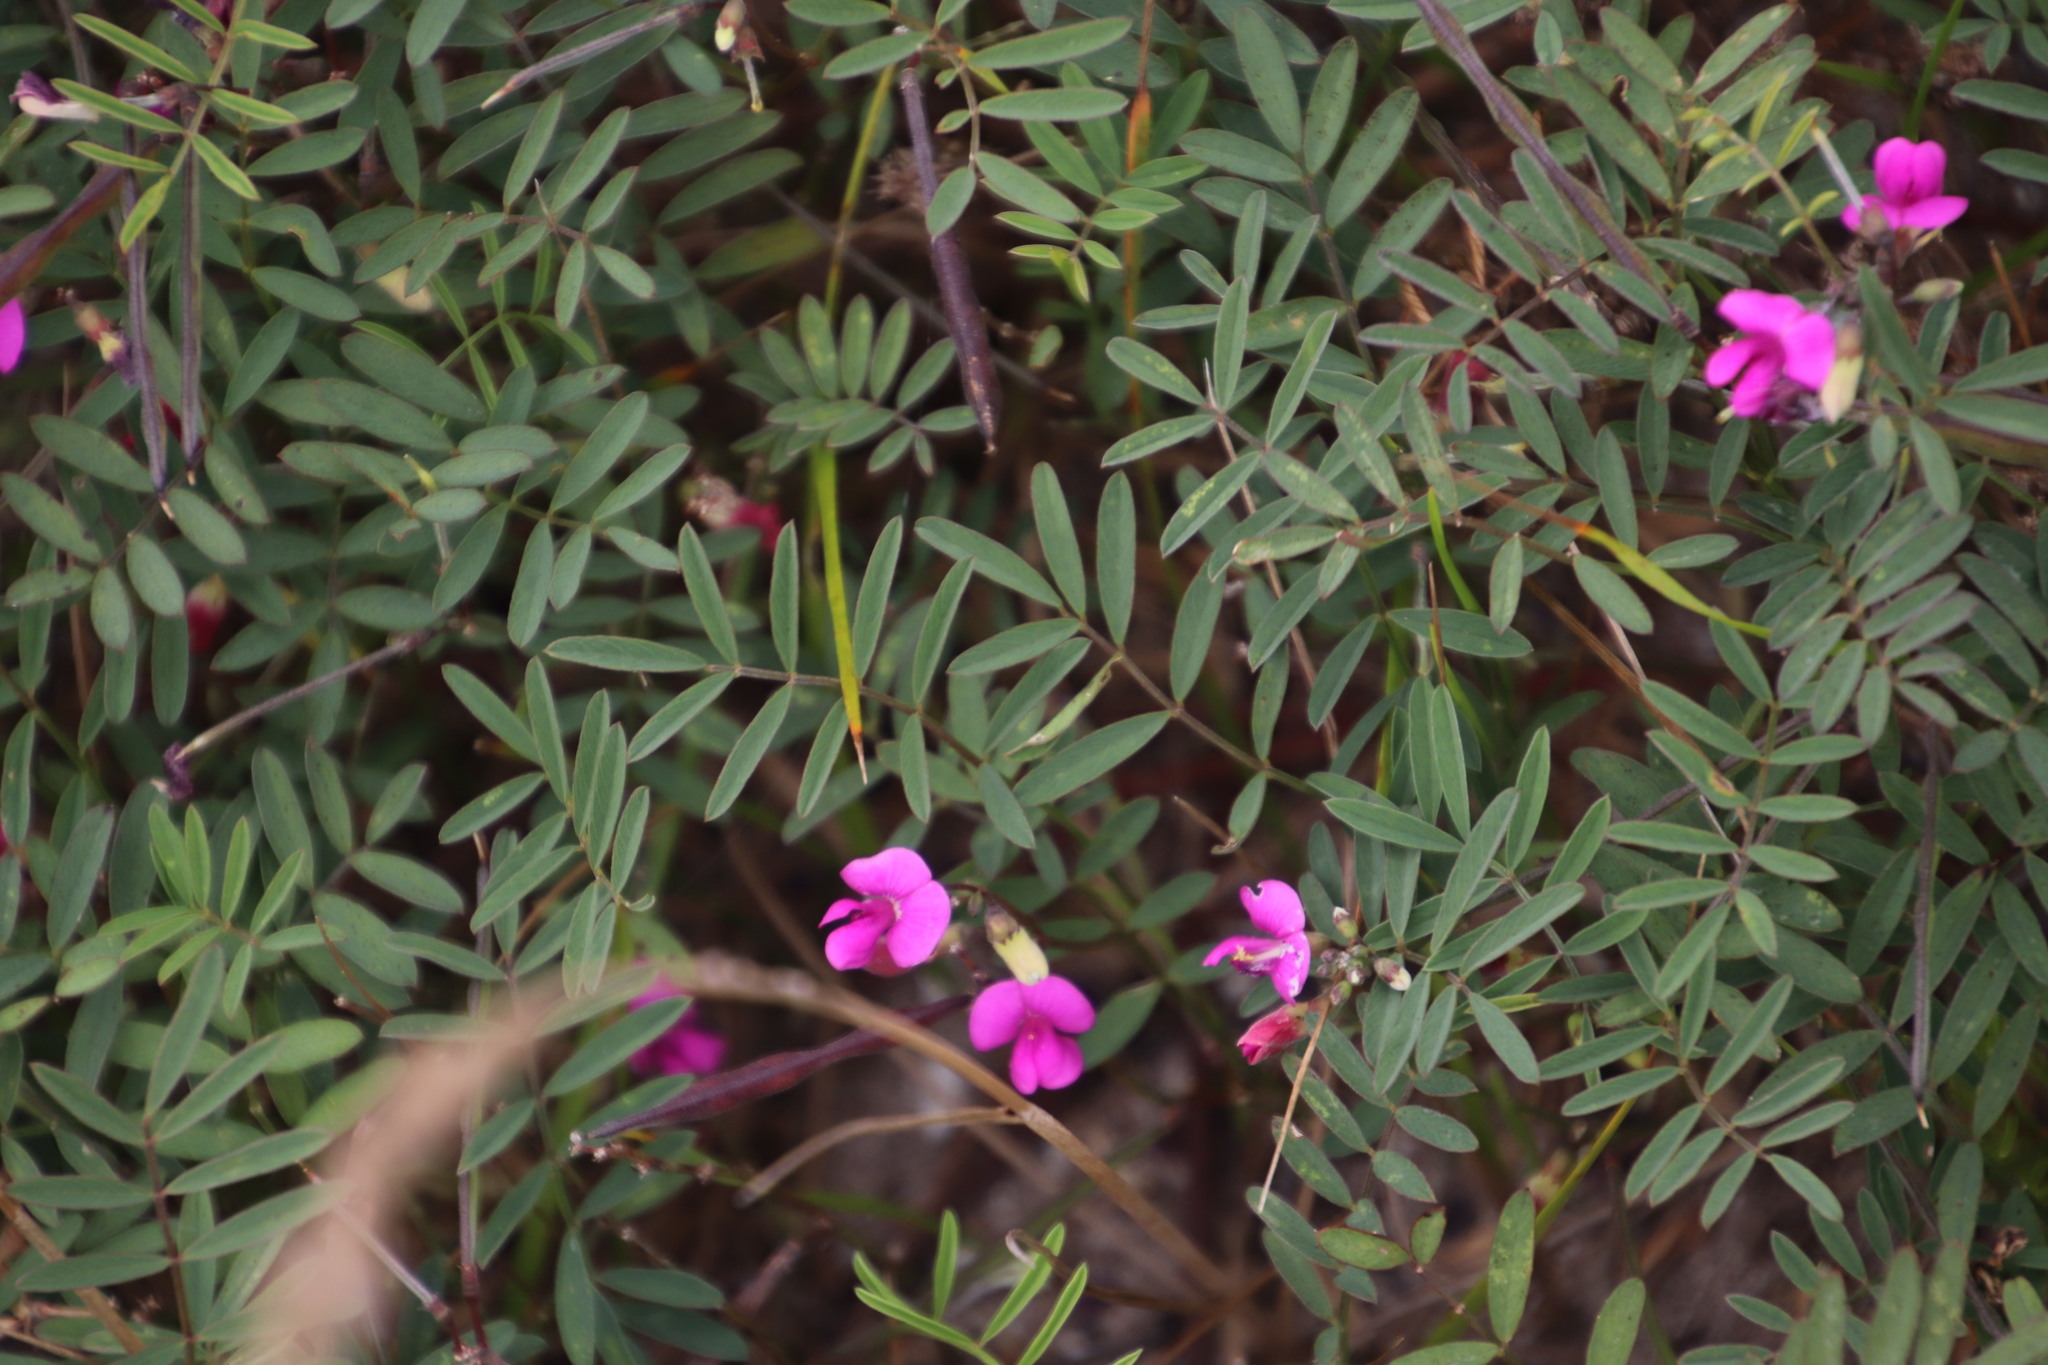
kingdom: Plantae
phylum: Tracheophyta
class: Magnoliopsida
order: Fabales
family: Fabaceae
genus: Tephrosia
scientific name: Tephrosia capensis
